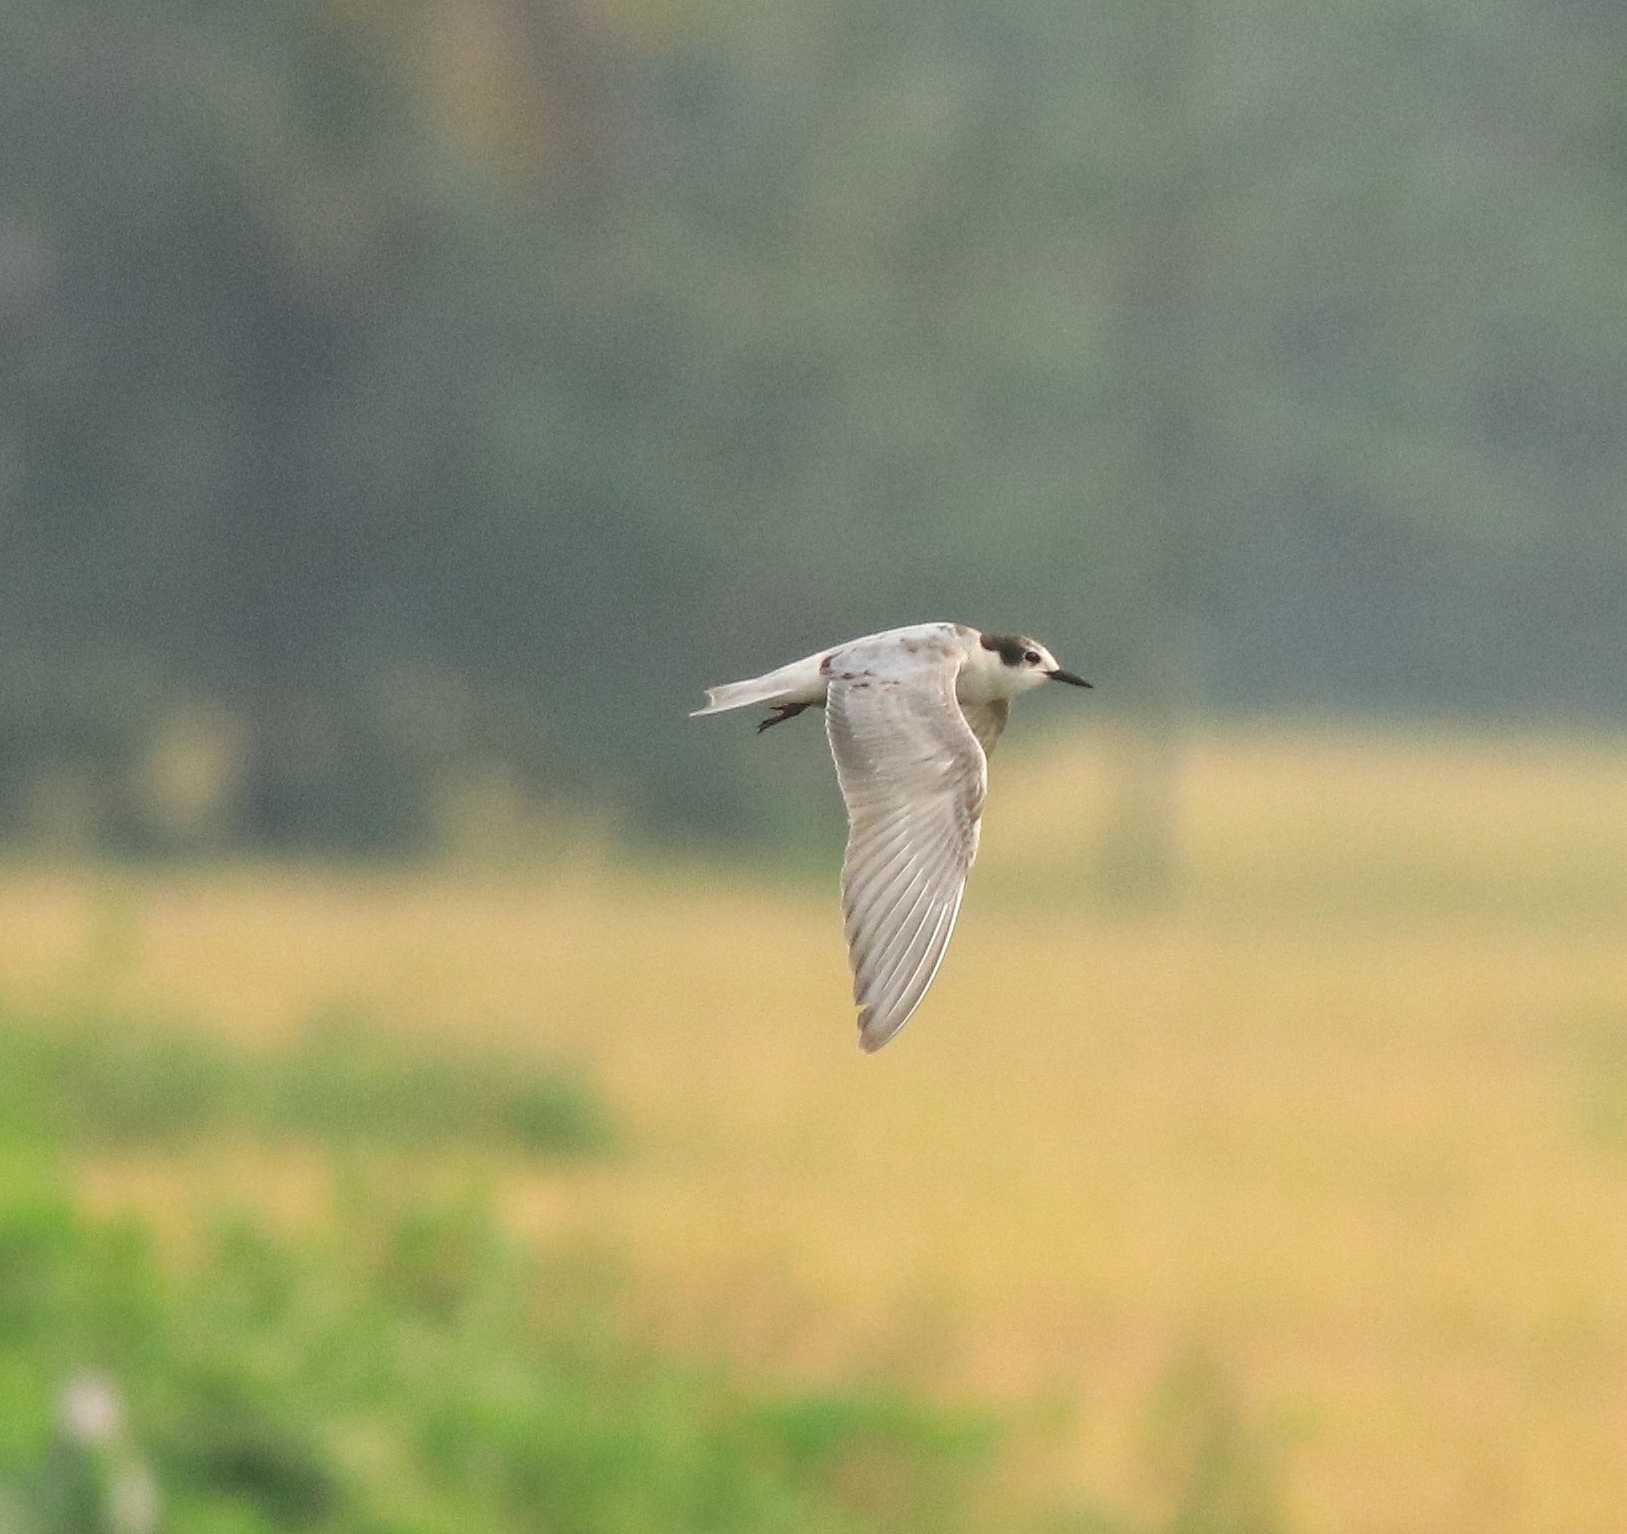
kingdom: Animalia
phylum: Chordata
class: Aves
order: Charadriiformes
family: Laridae
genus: Chlidonias
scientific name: Chlidonias hybrida
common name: Whiskered tern
